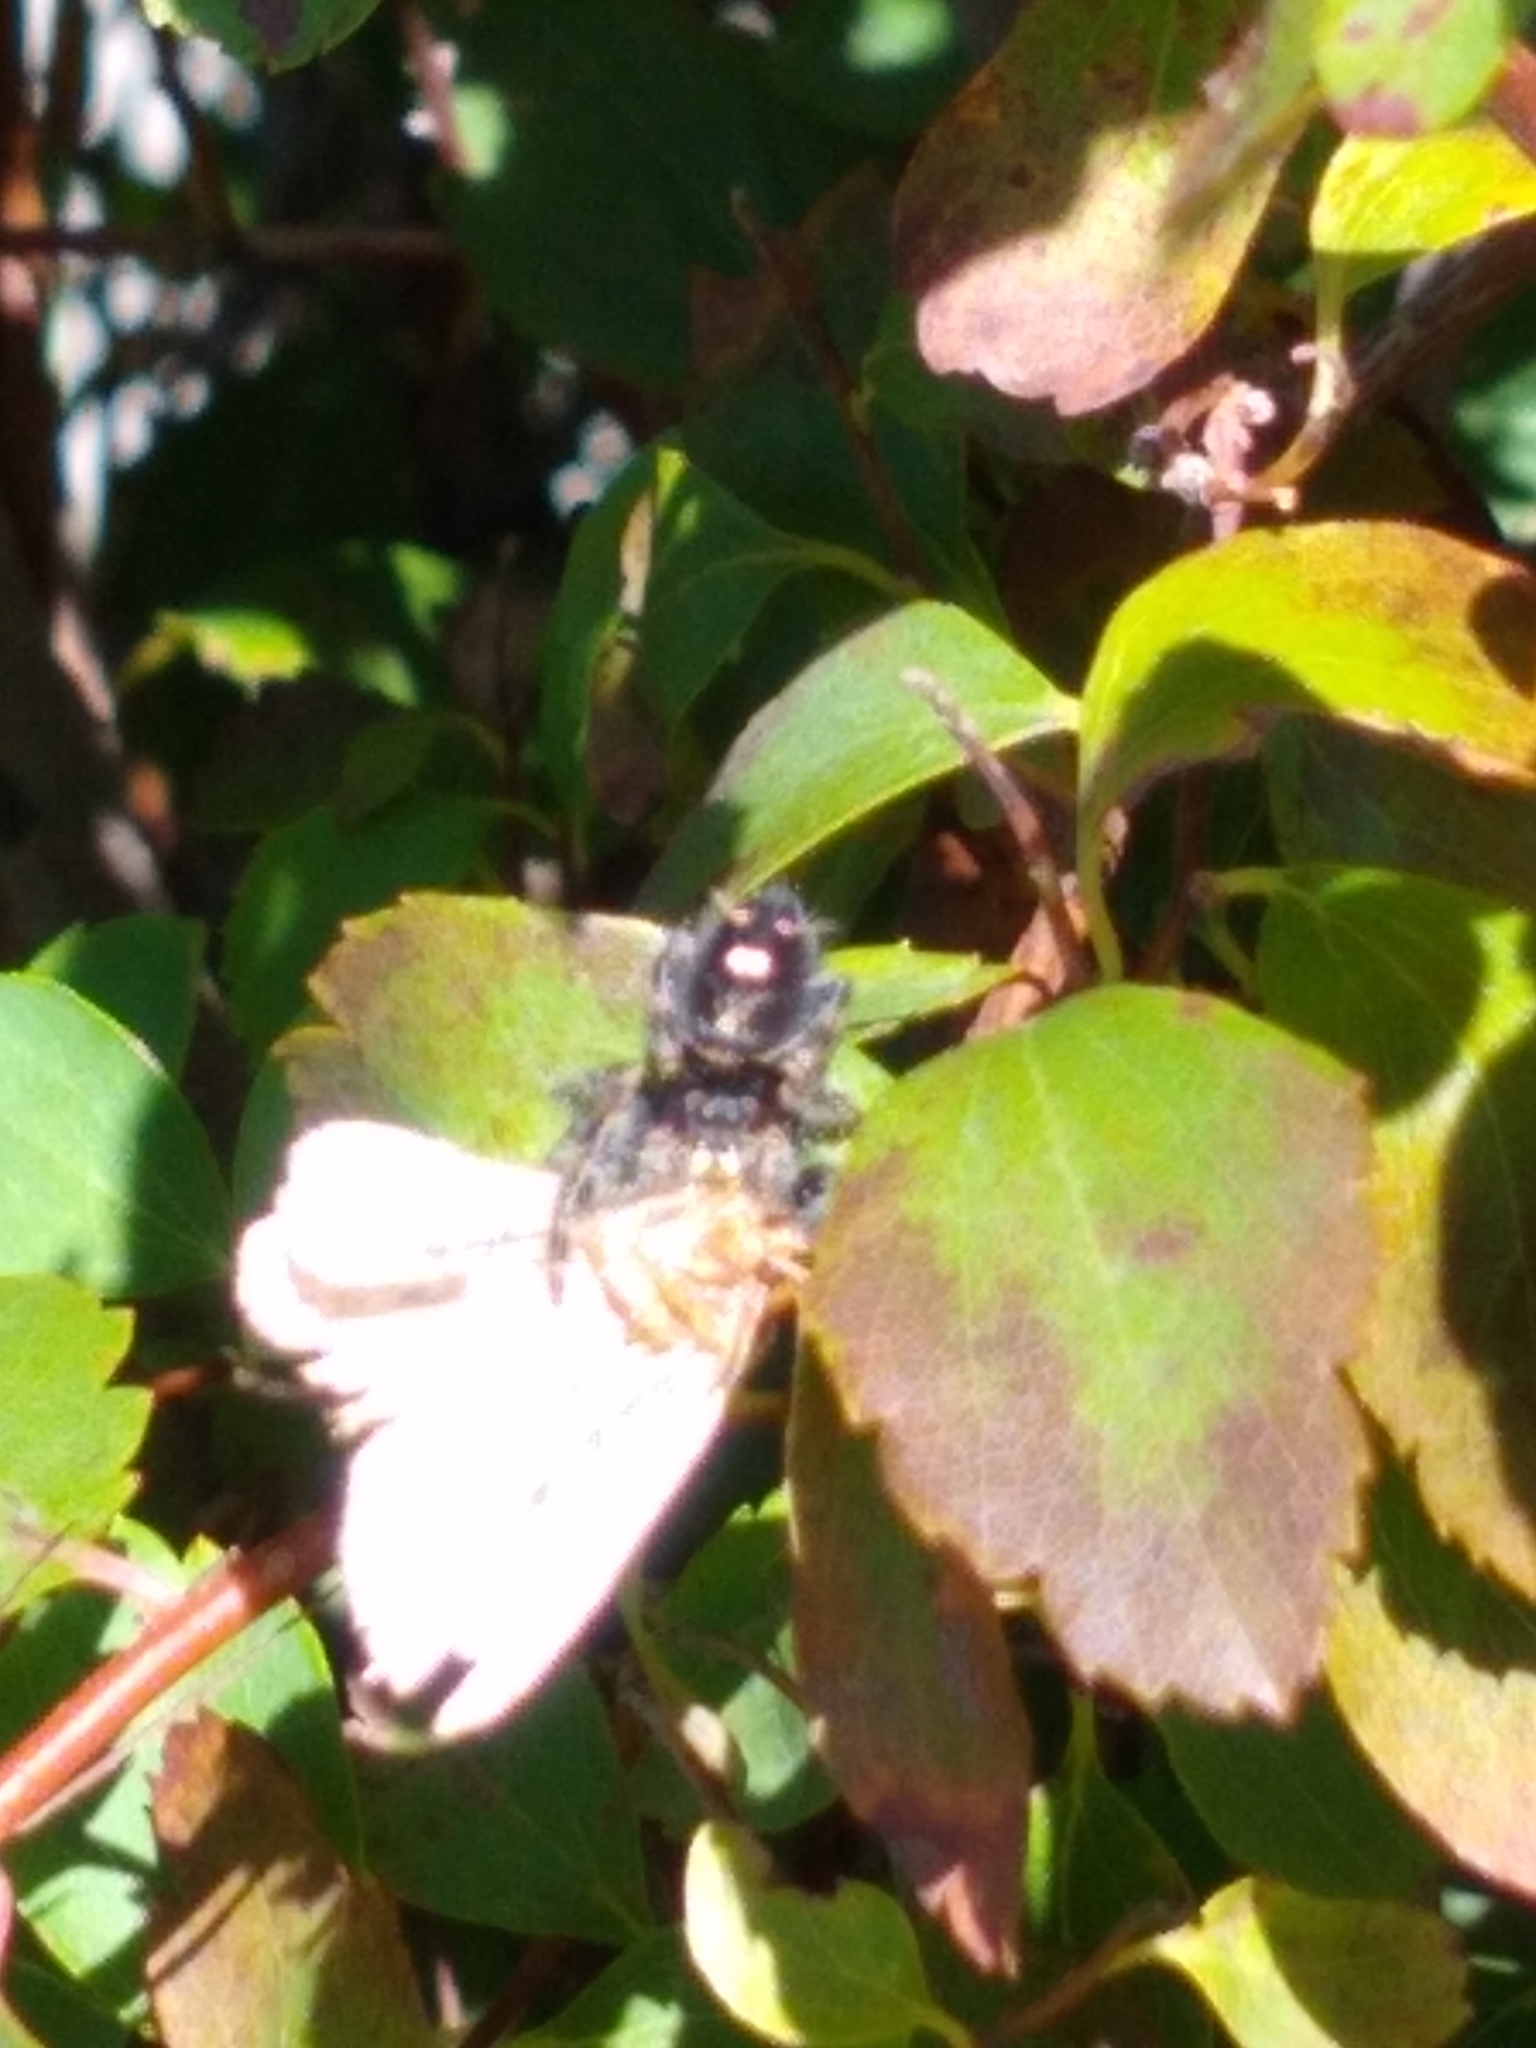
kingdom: Animalia
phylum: Arthropoda
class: Arachnida
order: Araneae
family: Salticidae
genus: Phidippus
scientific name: Phidippus audax
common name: Bold jumper
